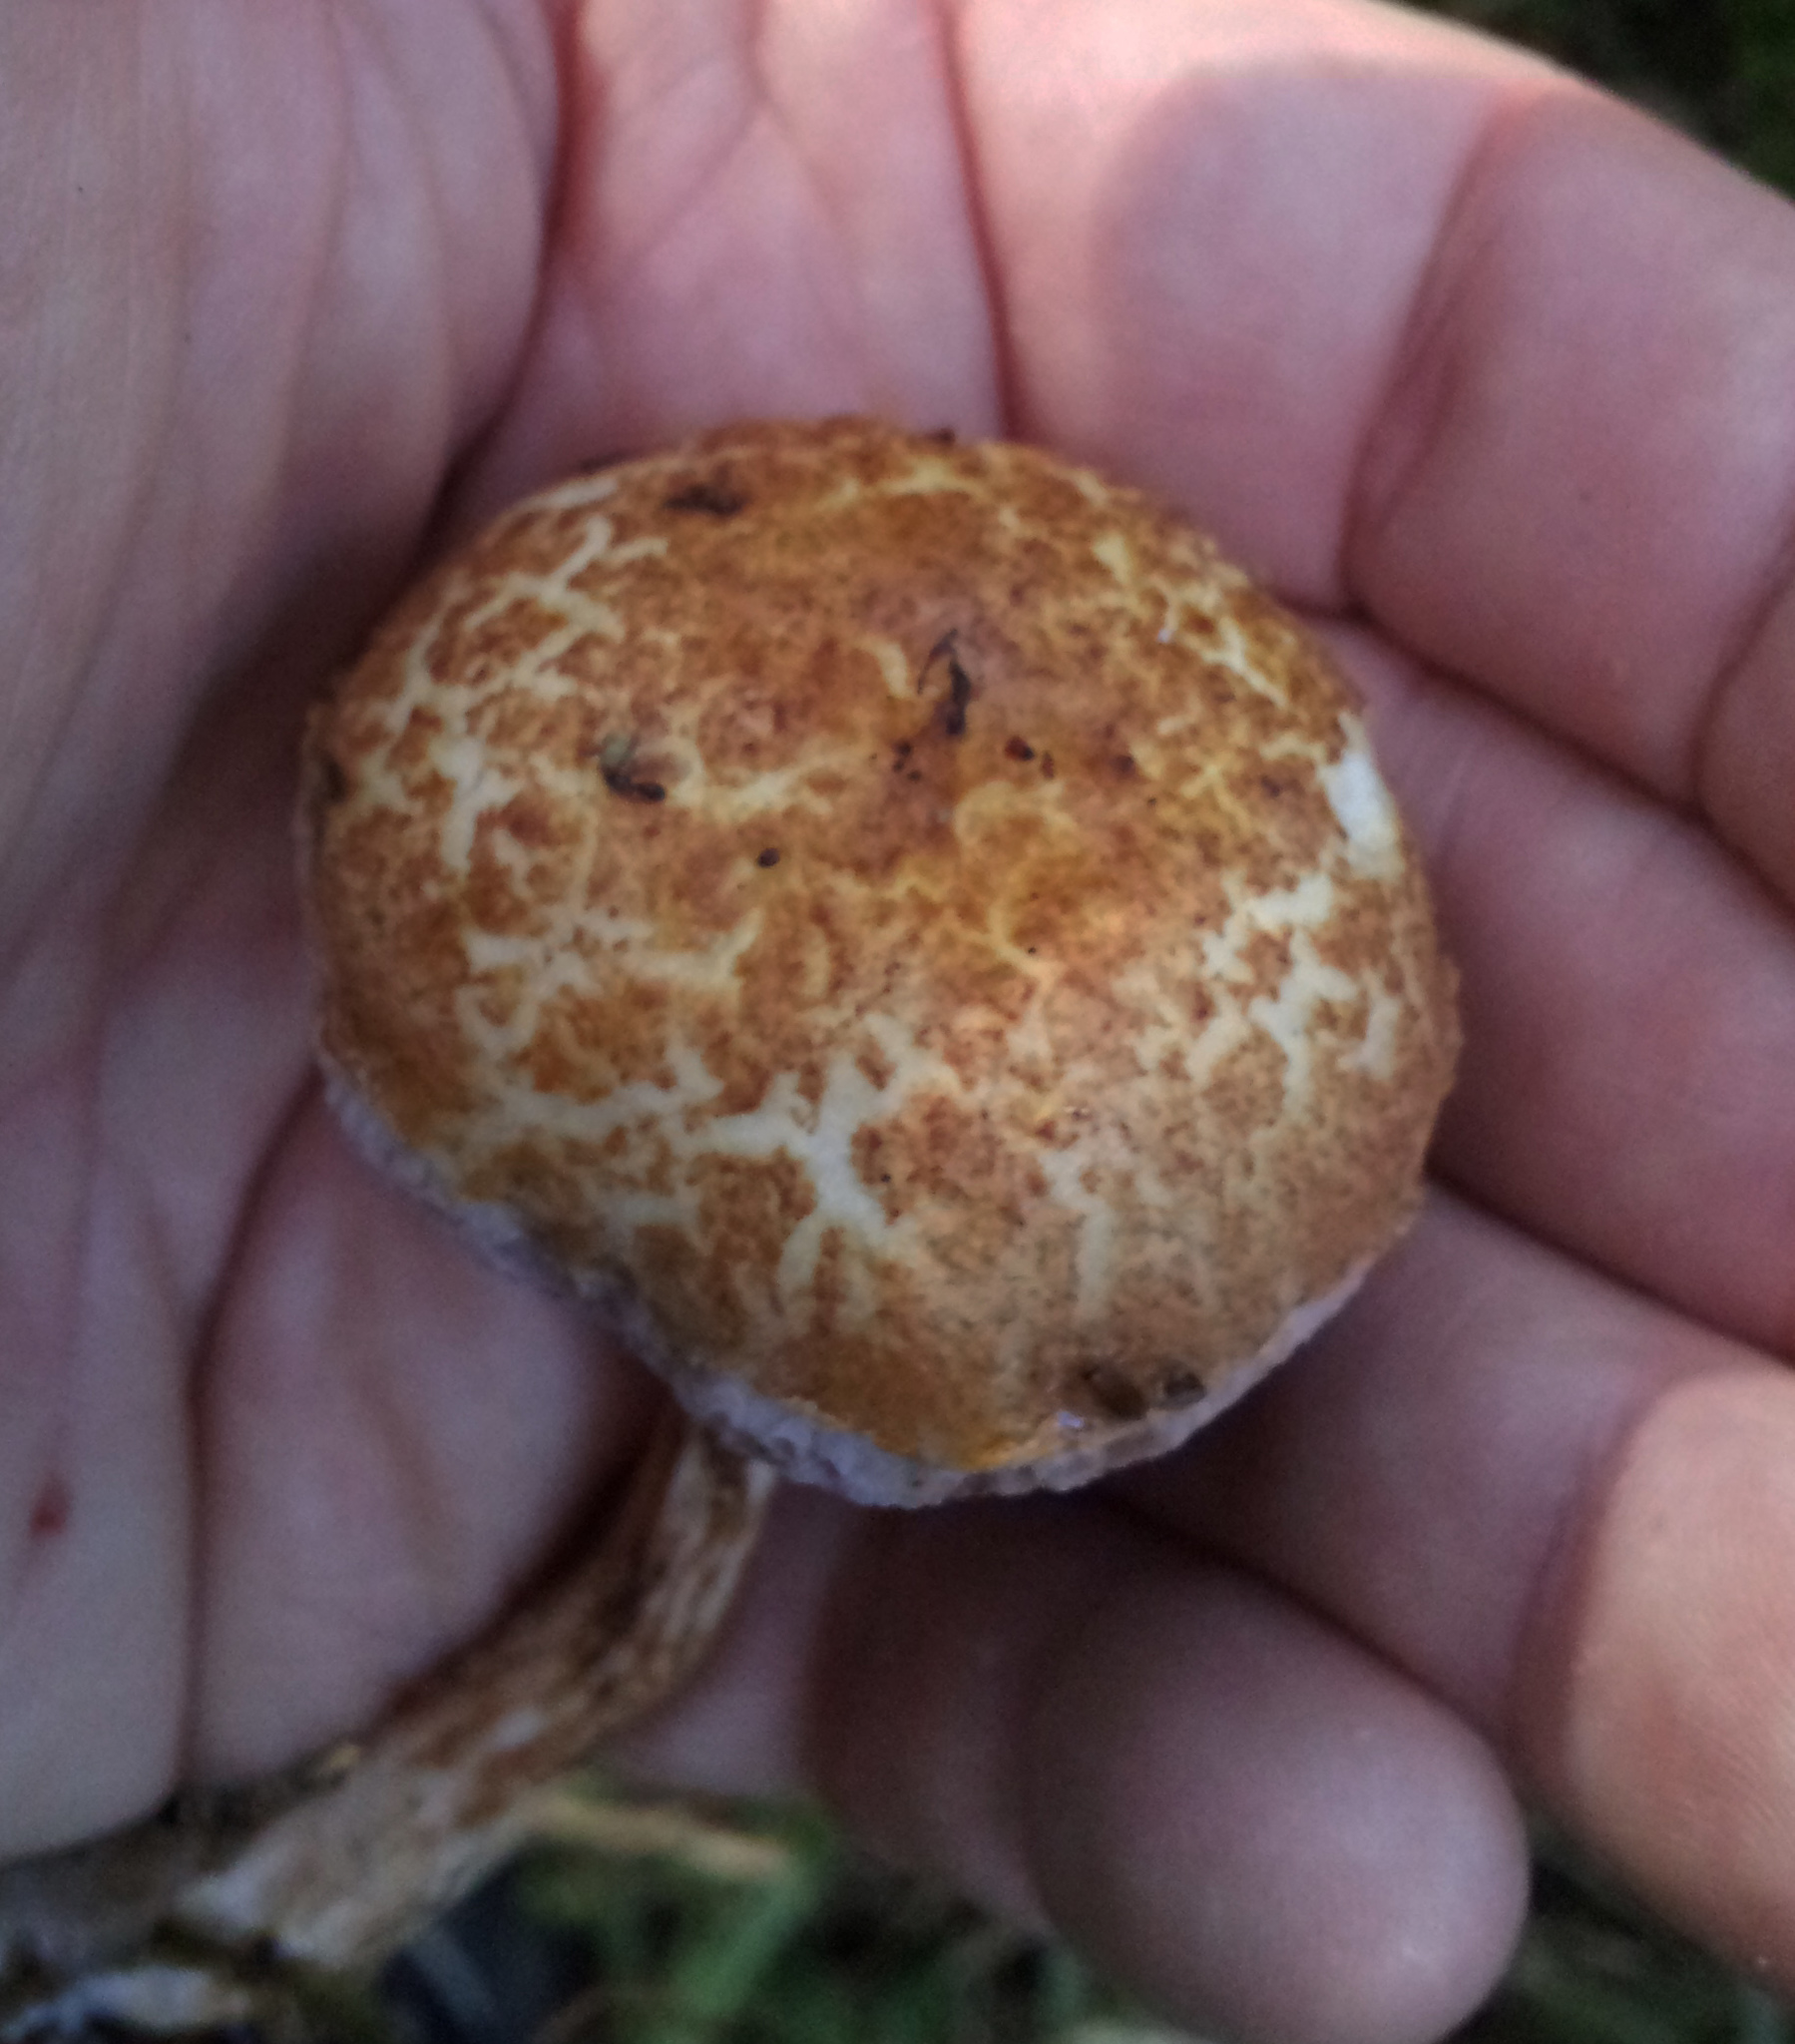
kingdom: Fungi
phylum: Basidiomycota
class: Agaricomycetes
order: Boletales
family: Boletaceae
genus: Austroboletus
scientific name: Austroboletus lacunosus
